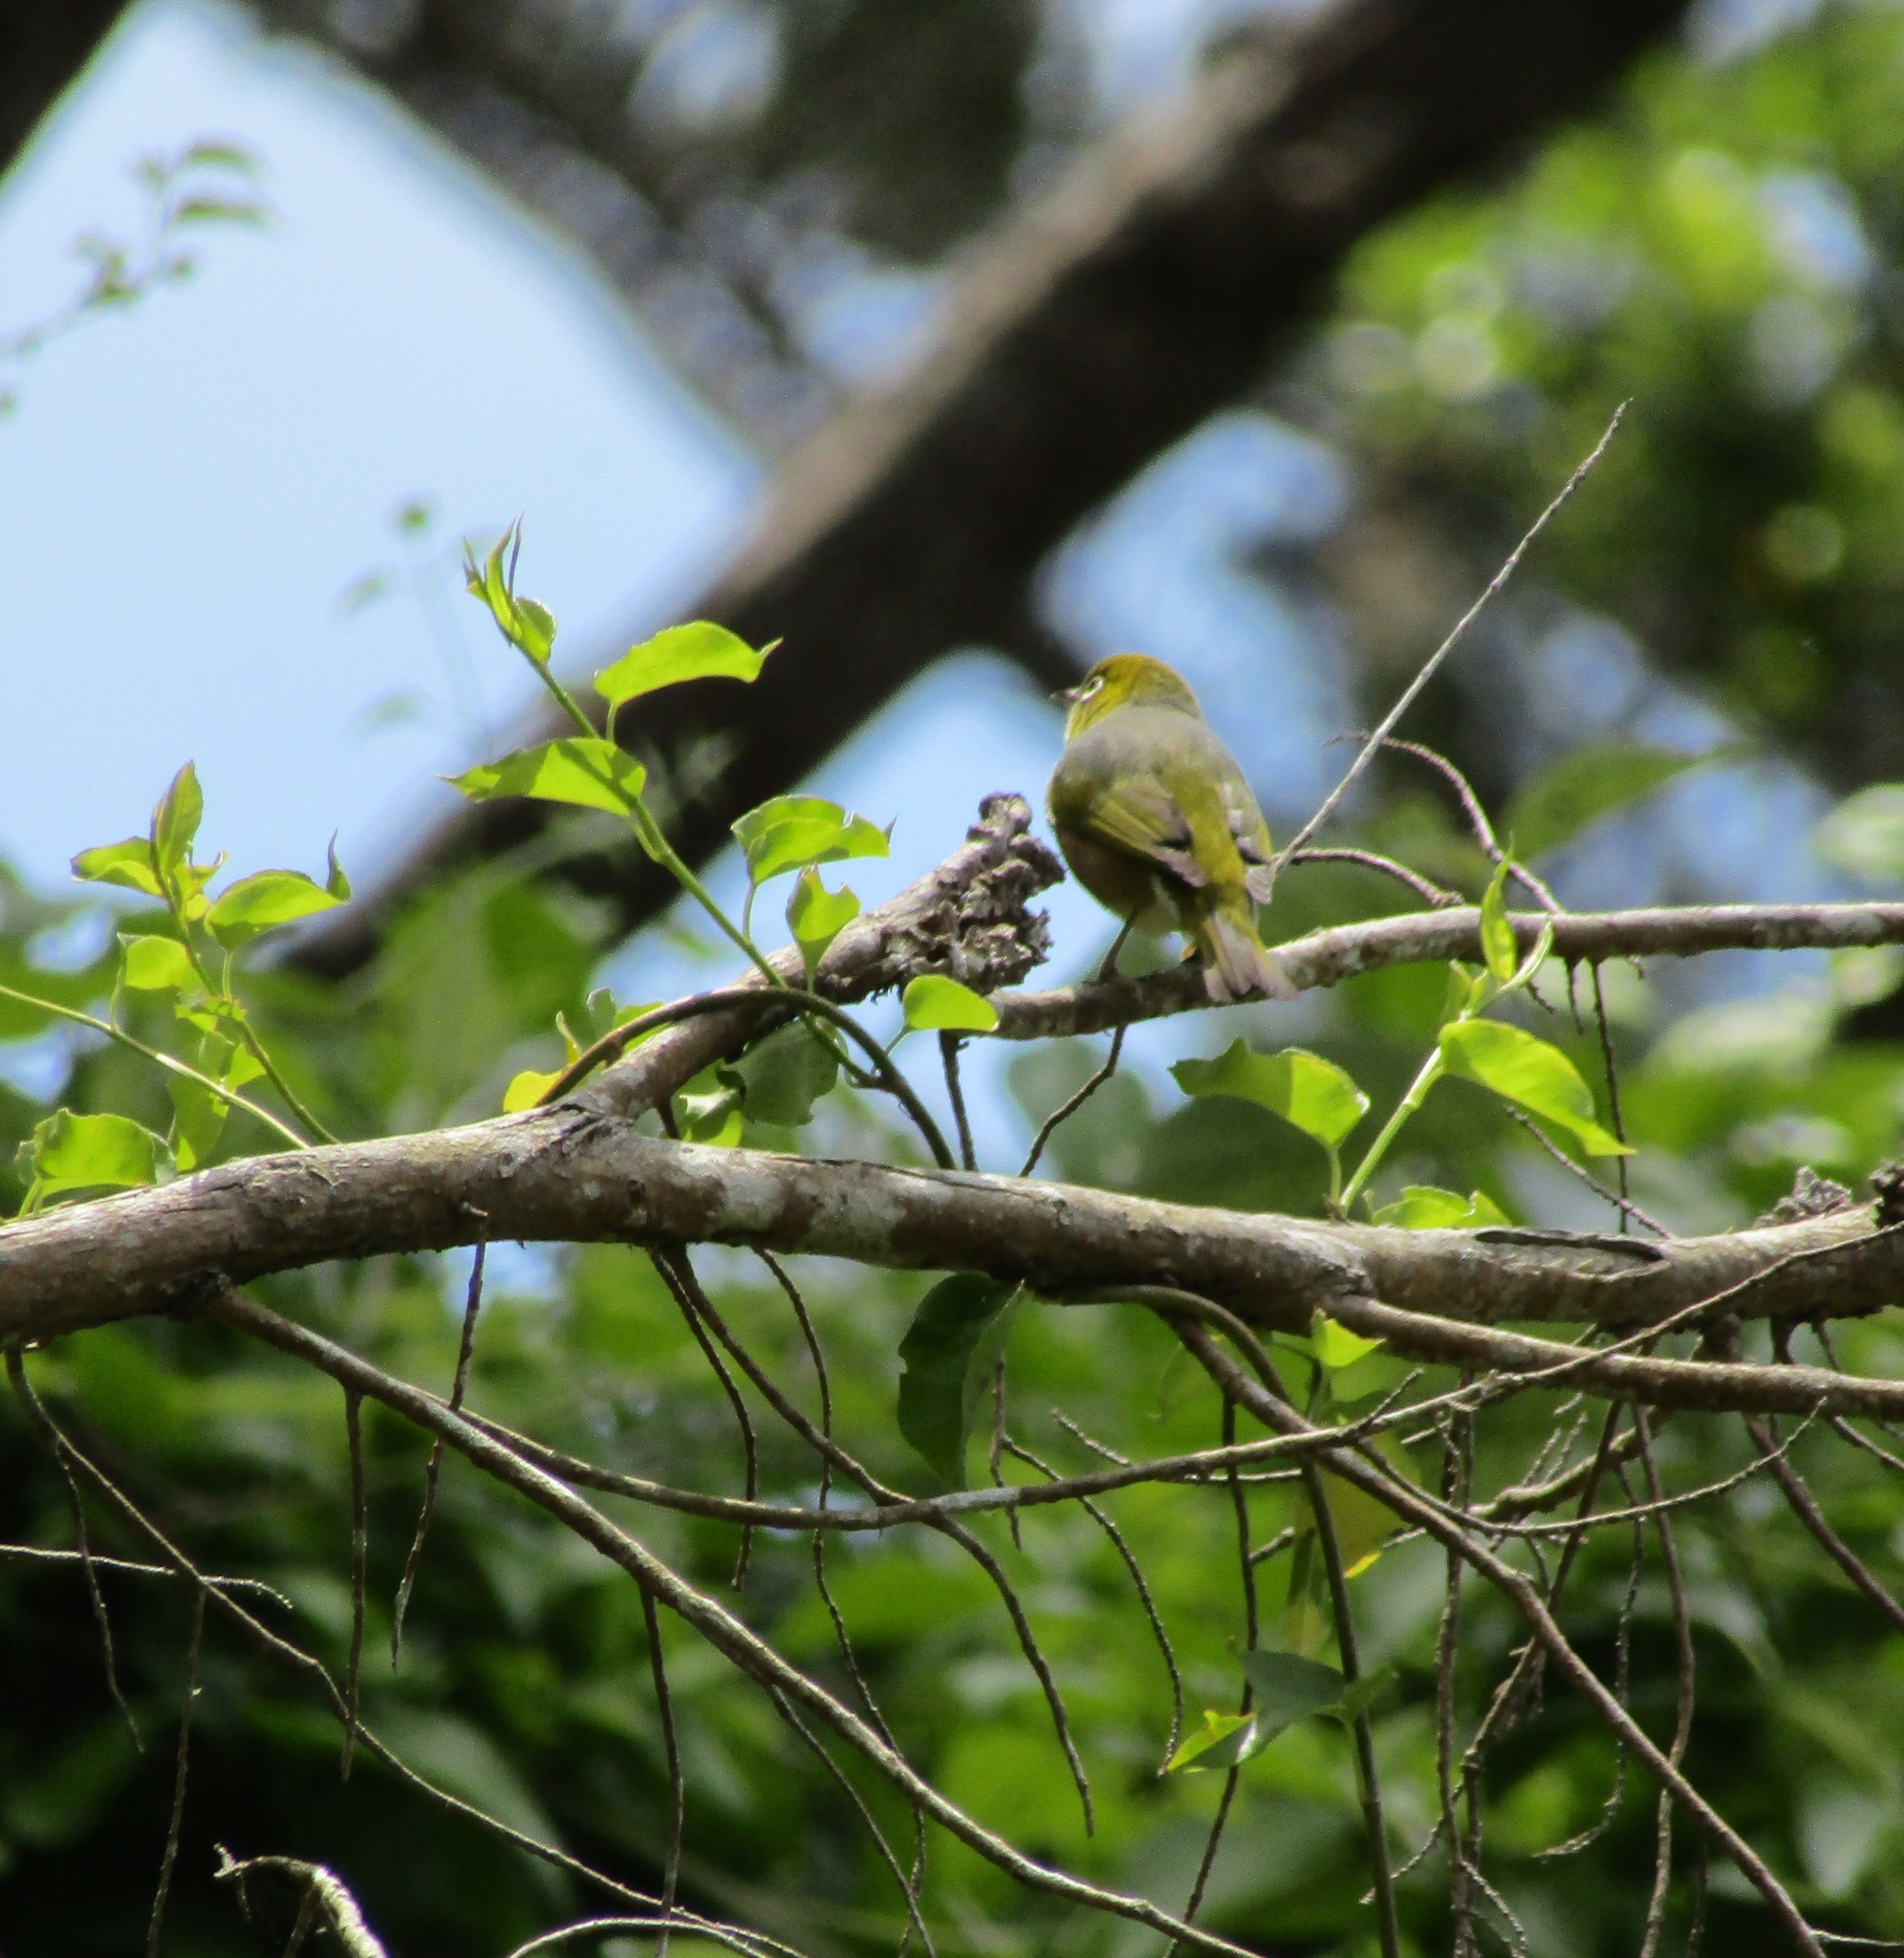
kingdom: Animalia
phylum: Chordata
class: Aves
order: Passeriformes
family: Zosteropidae
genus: Zosterops
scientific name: Zosterops lateralis
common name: Silvereye
